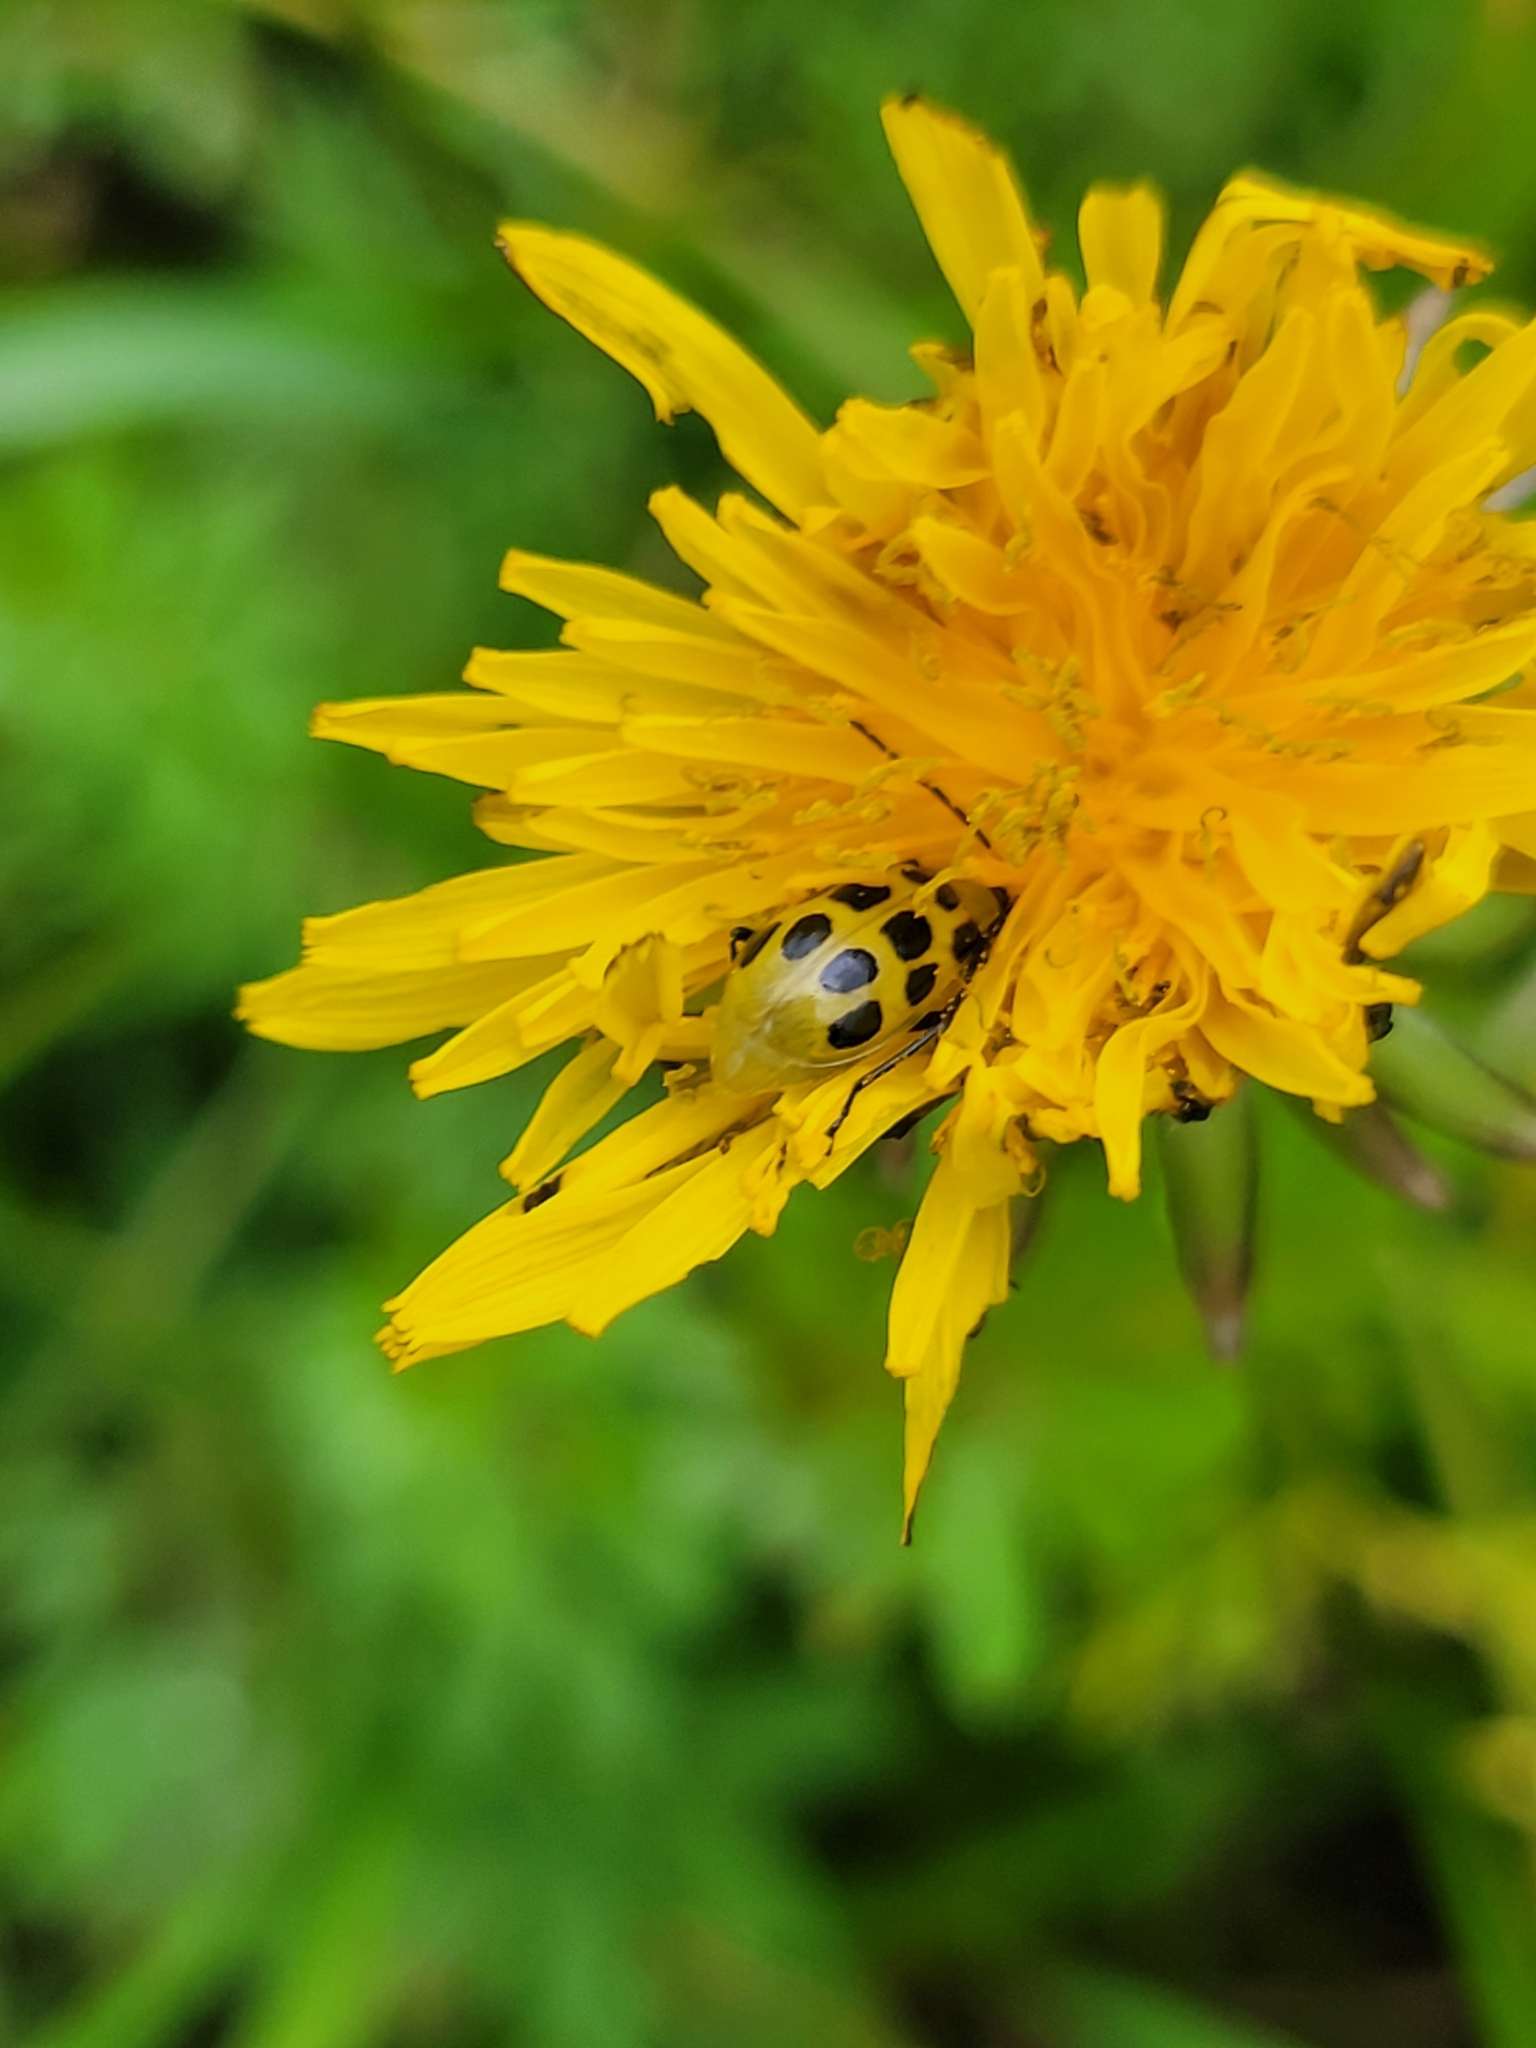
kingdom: Animalia
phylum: Arthropoda
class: Insecta
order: Coleoptera
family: Chrysomelidae
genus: Diabrotica
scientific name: Diabrotica undecimpunctata
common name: Spotted cucumber beetle
